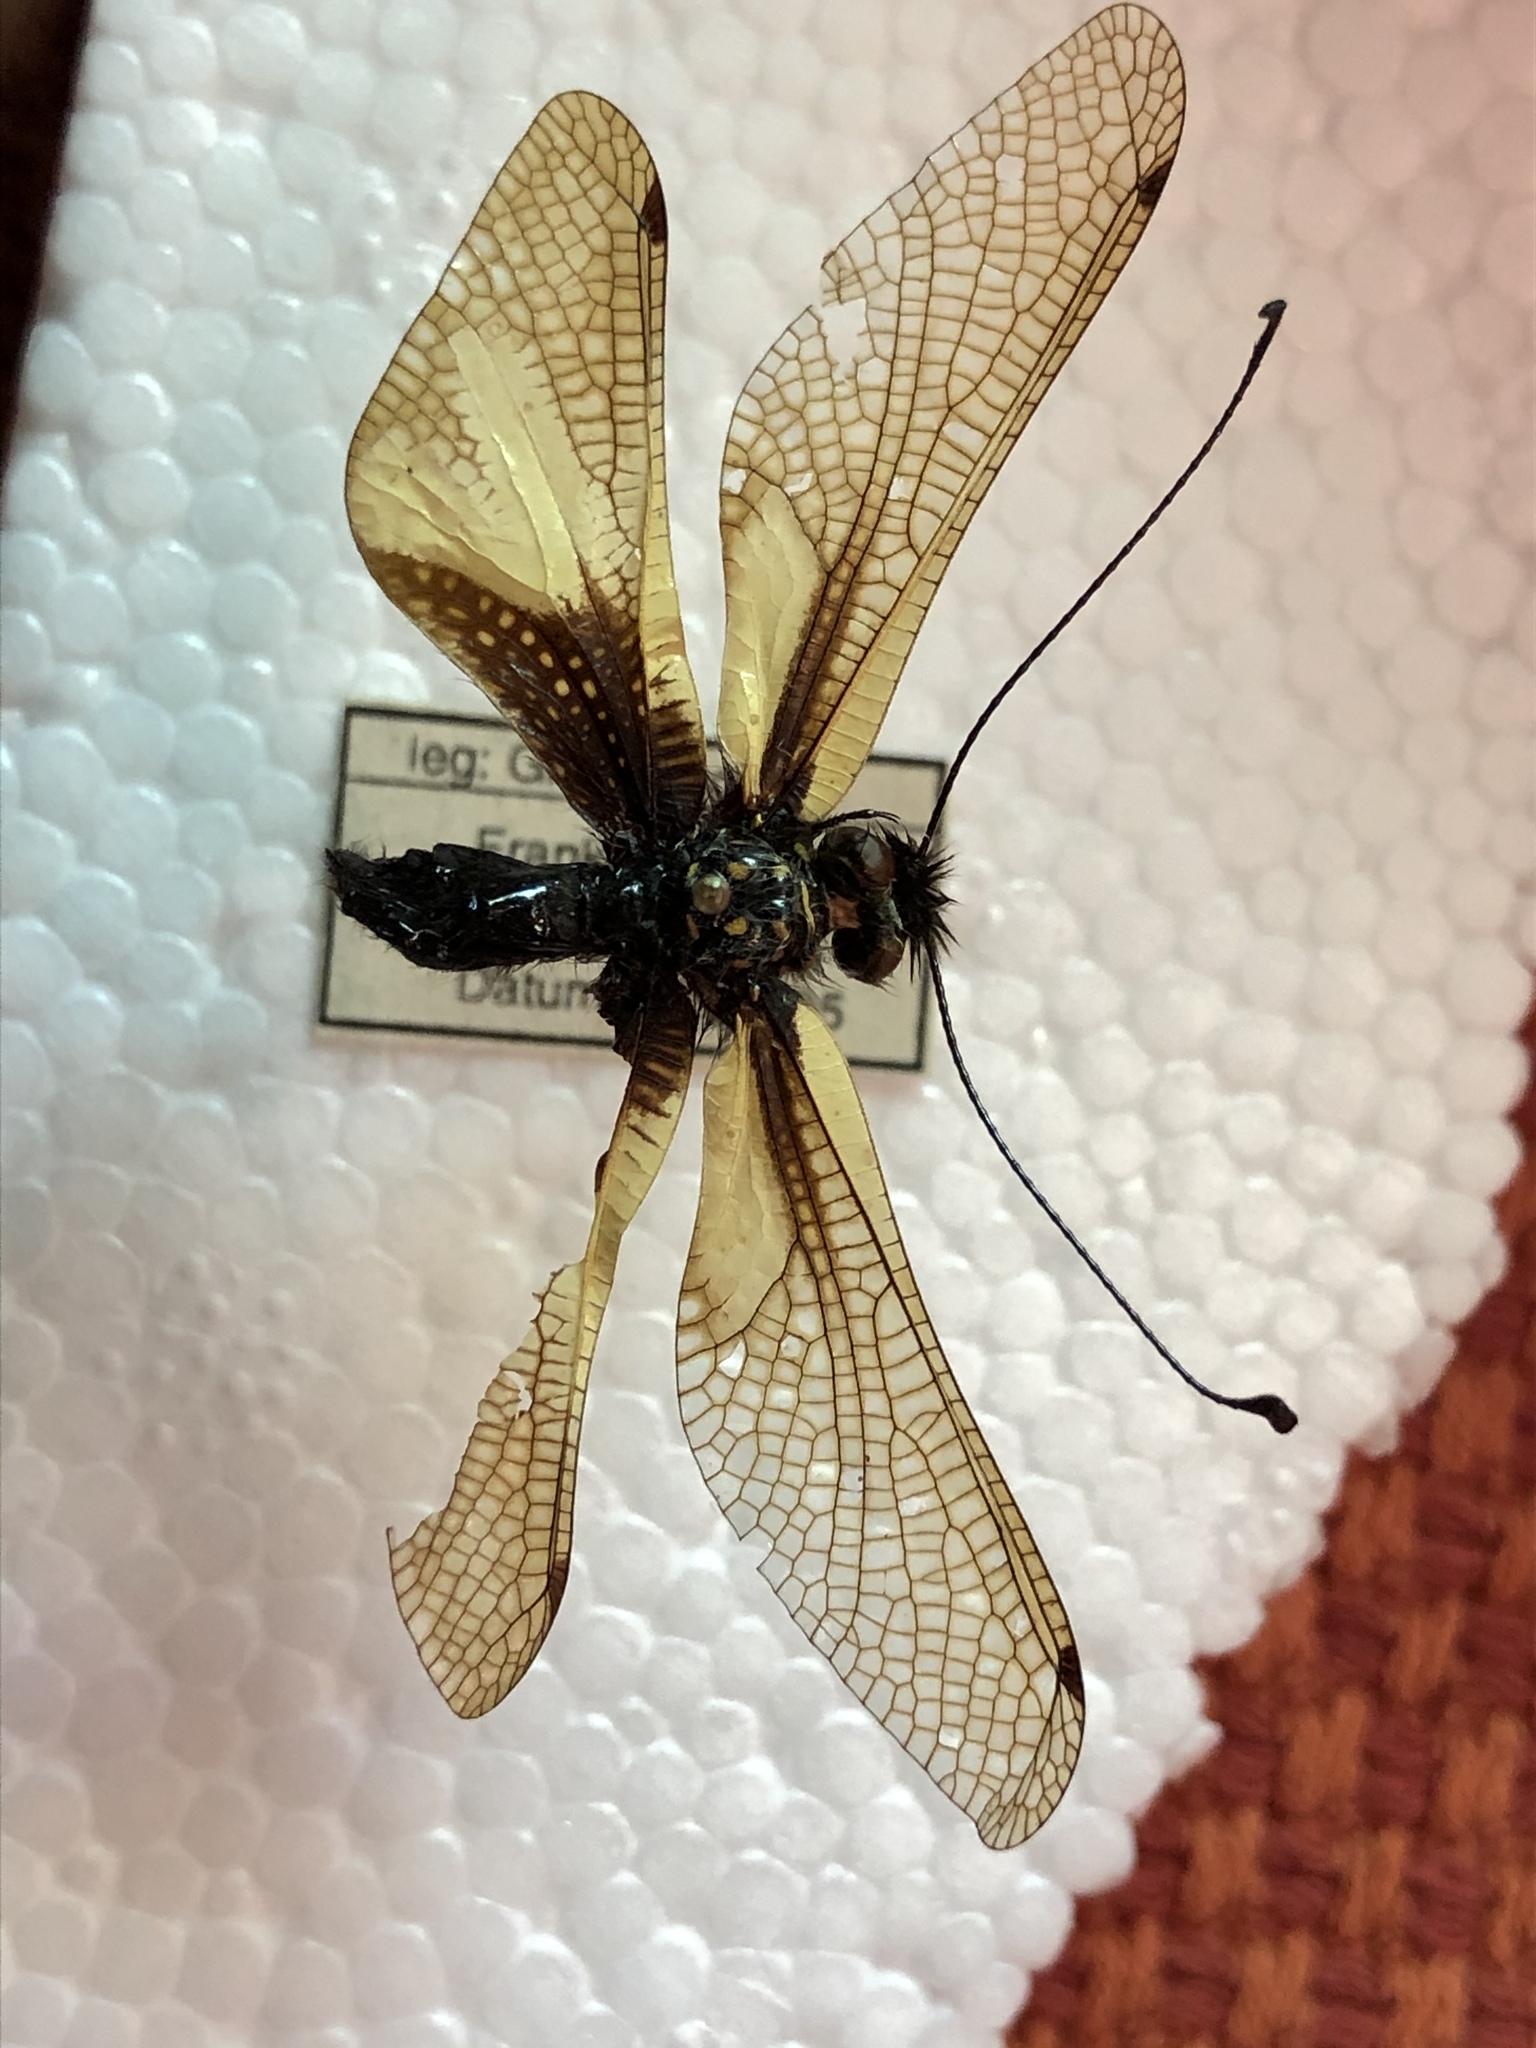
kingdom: Animalia
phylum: Arthropoda
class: Insecta
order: Neuroptera
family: Ascalaphidae
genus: Libelloides
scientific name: Libelloides coccajus
